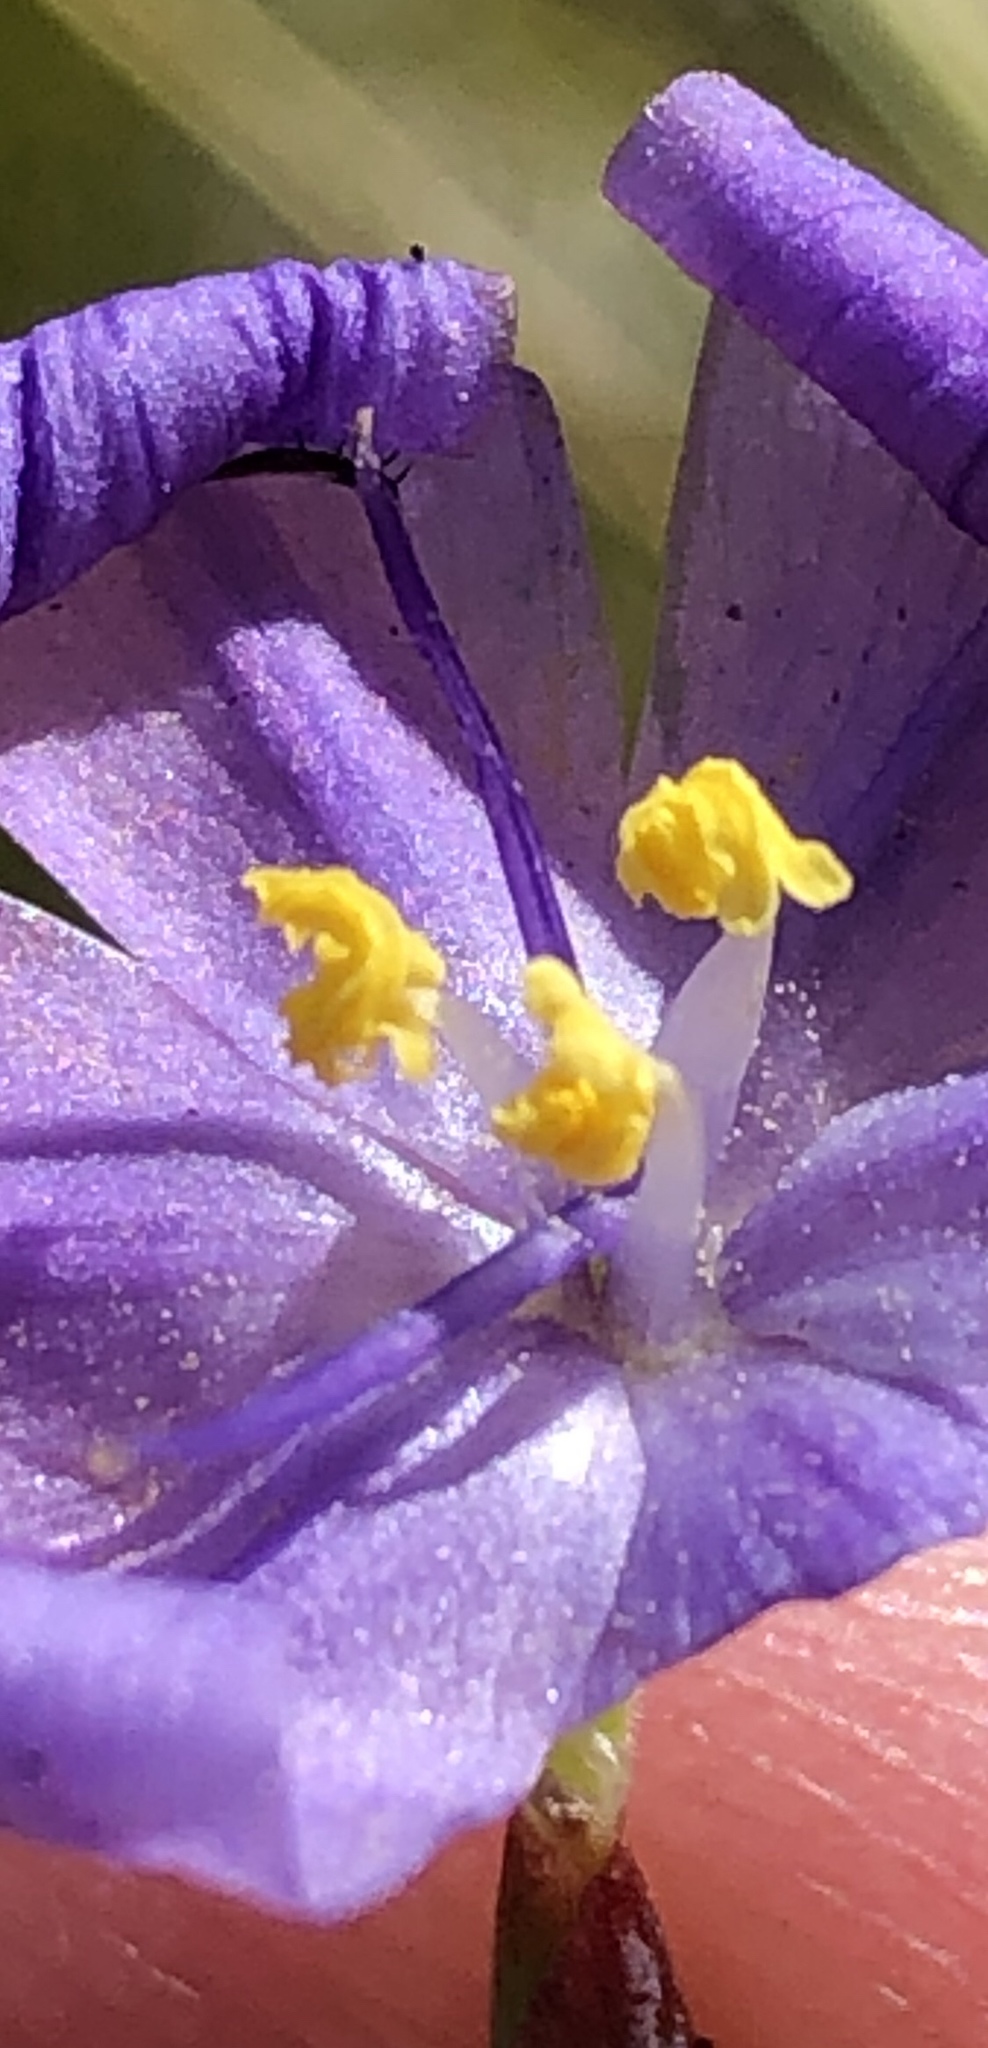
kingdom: Plantae
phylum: Tracheophyta
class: Liliopsida
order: Asparagales
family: Iridaceae
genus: Bobartia
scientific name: Bobartia lilacina
